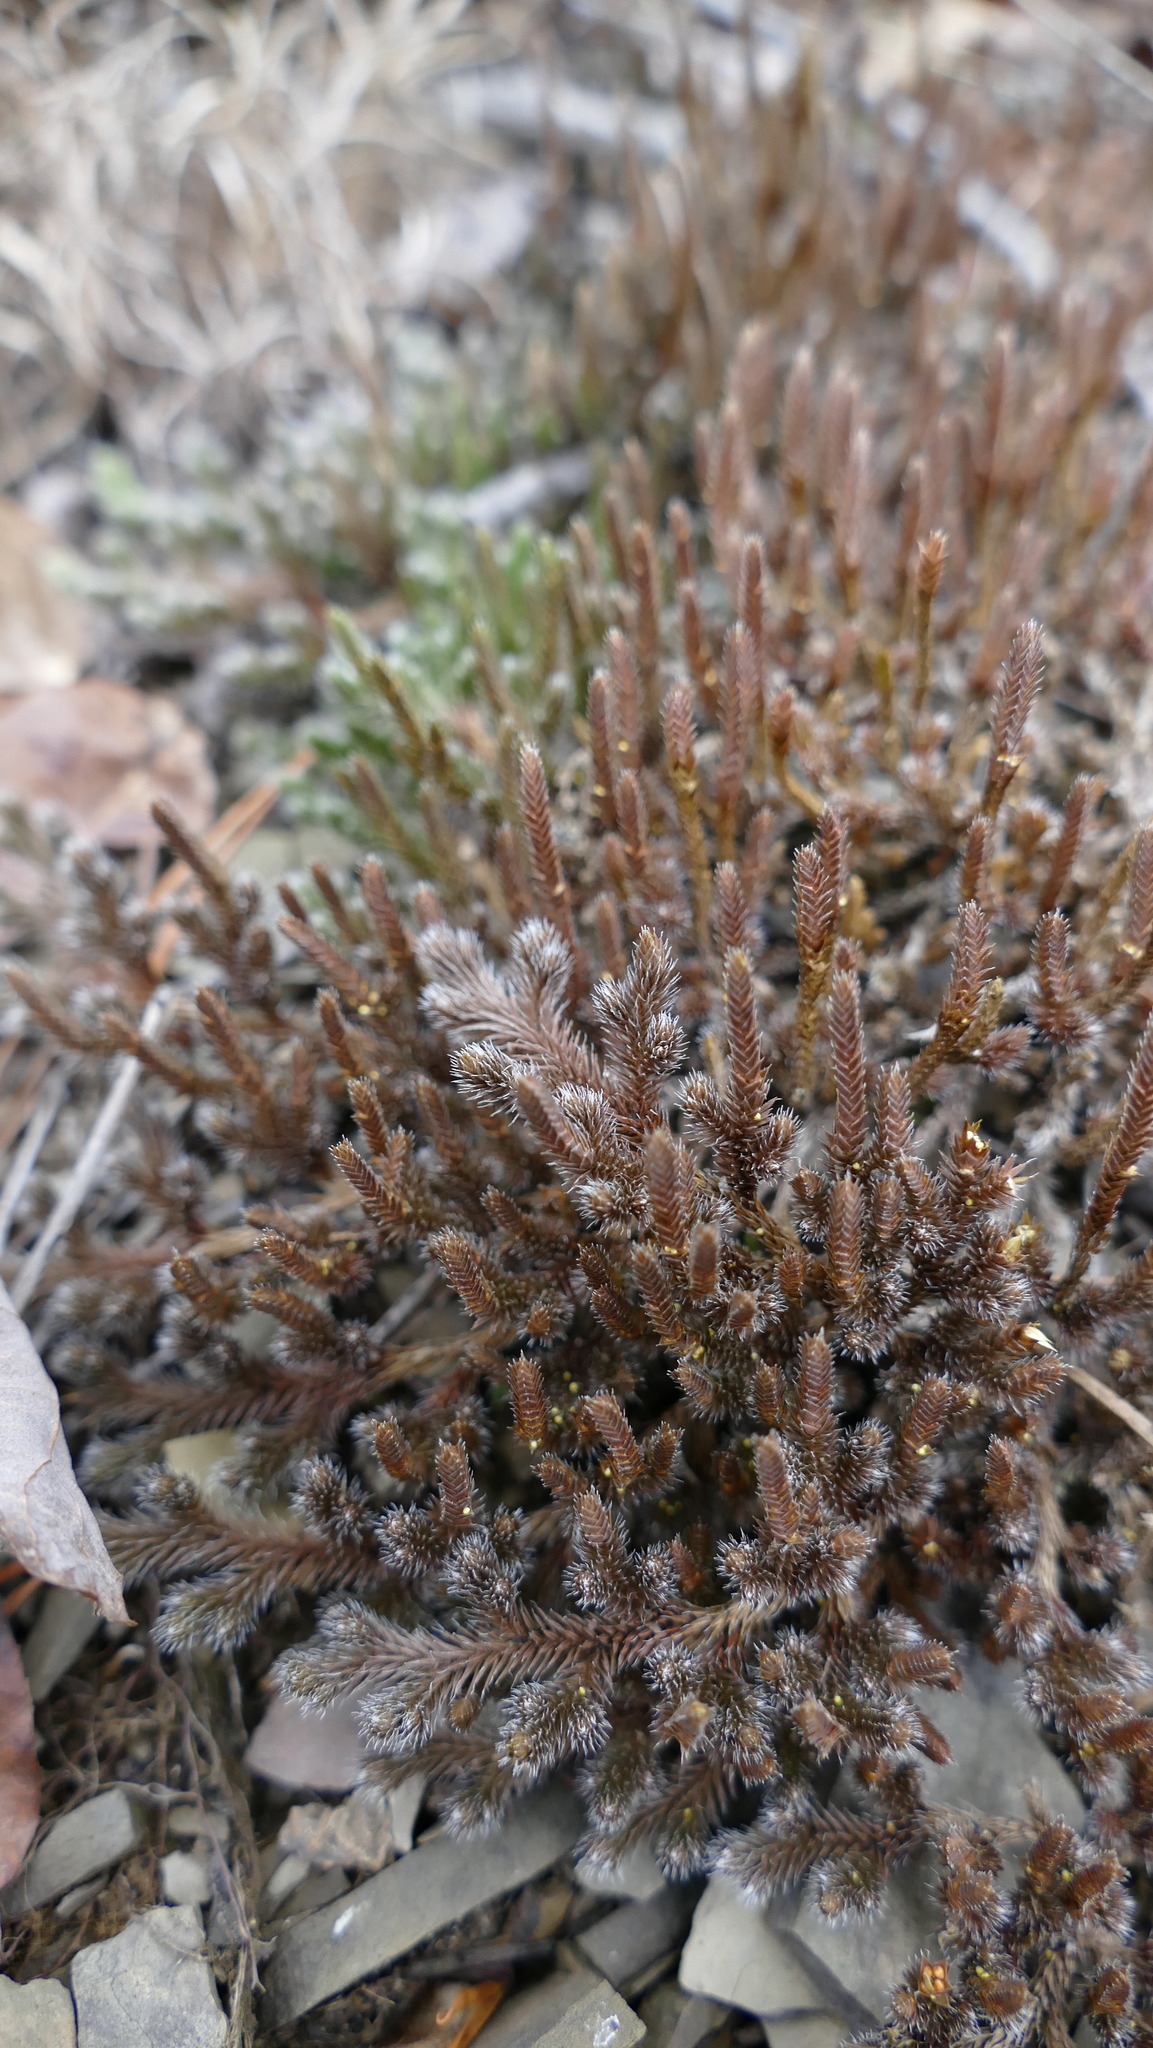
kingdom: Plantae
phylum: Tracheophyta
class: Lycopodiopsida
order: Selaginellales
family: Selaginellaceae
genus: Selaginella
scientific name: Selaginella rupestris
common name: Dwarf spikemoss
